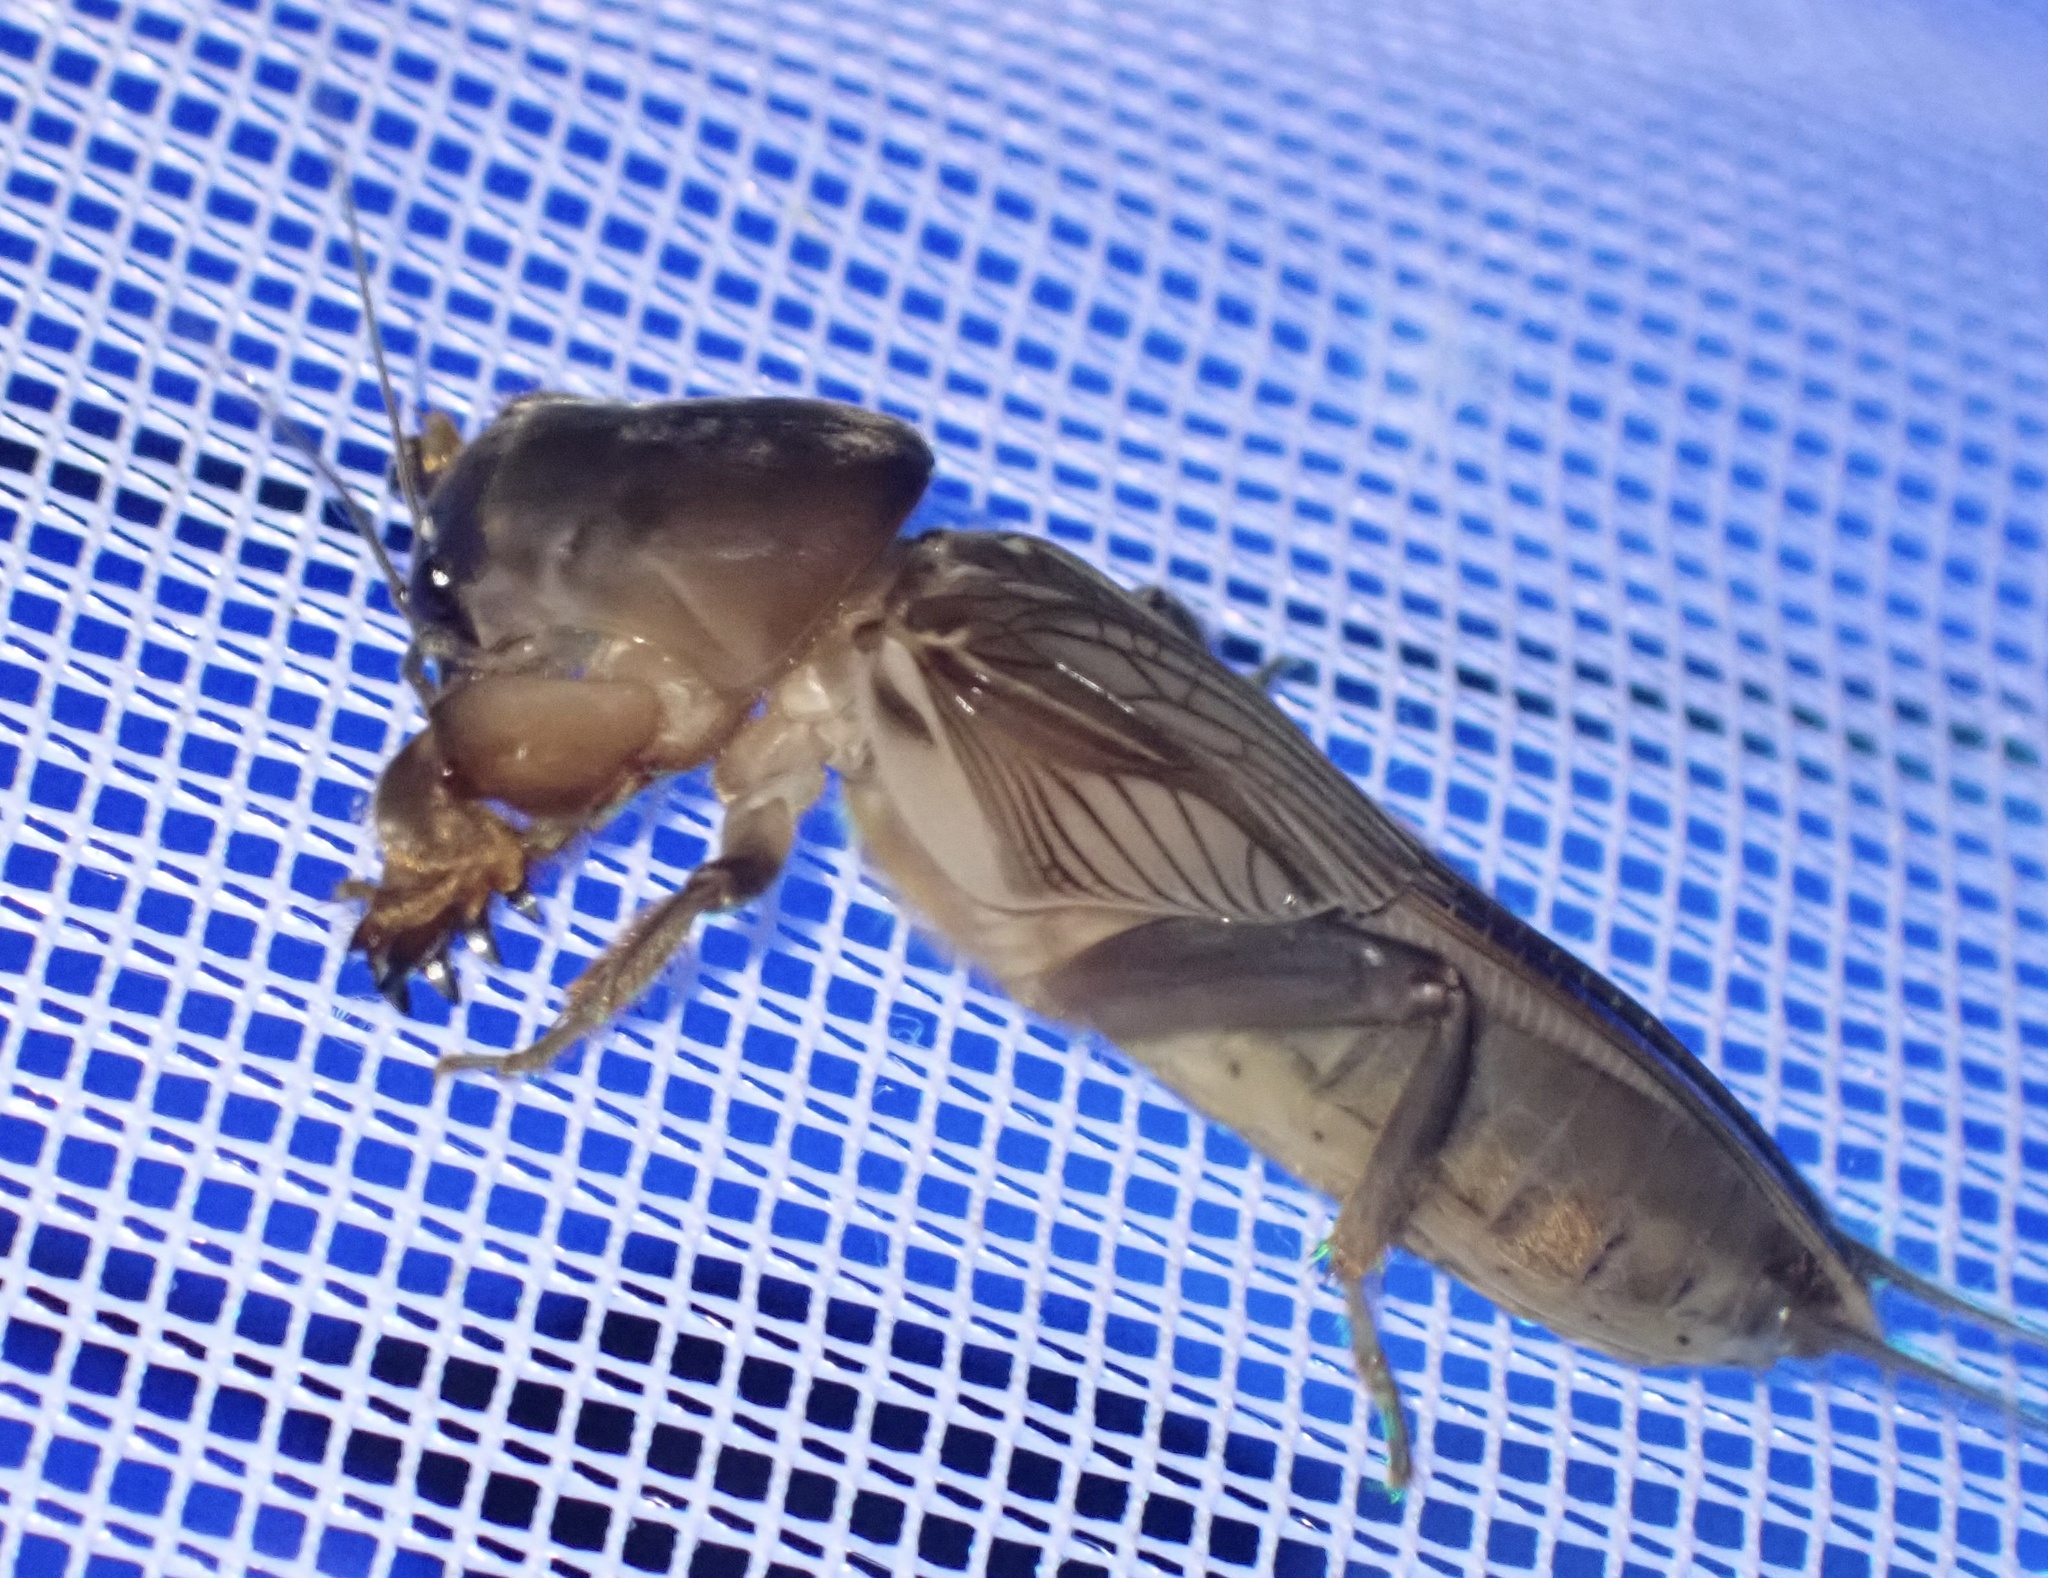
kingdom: Animalia
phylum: Arthropoda
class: Insecta
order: Orthoptera
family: Gryllotalpidae
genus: Gryllotalpa
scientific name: Gryllotalpa orientalis
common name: Grasshopper
